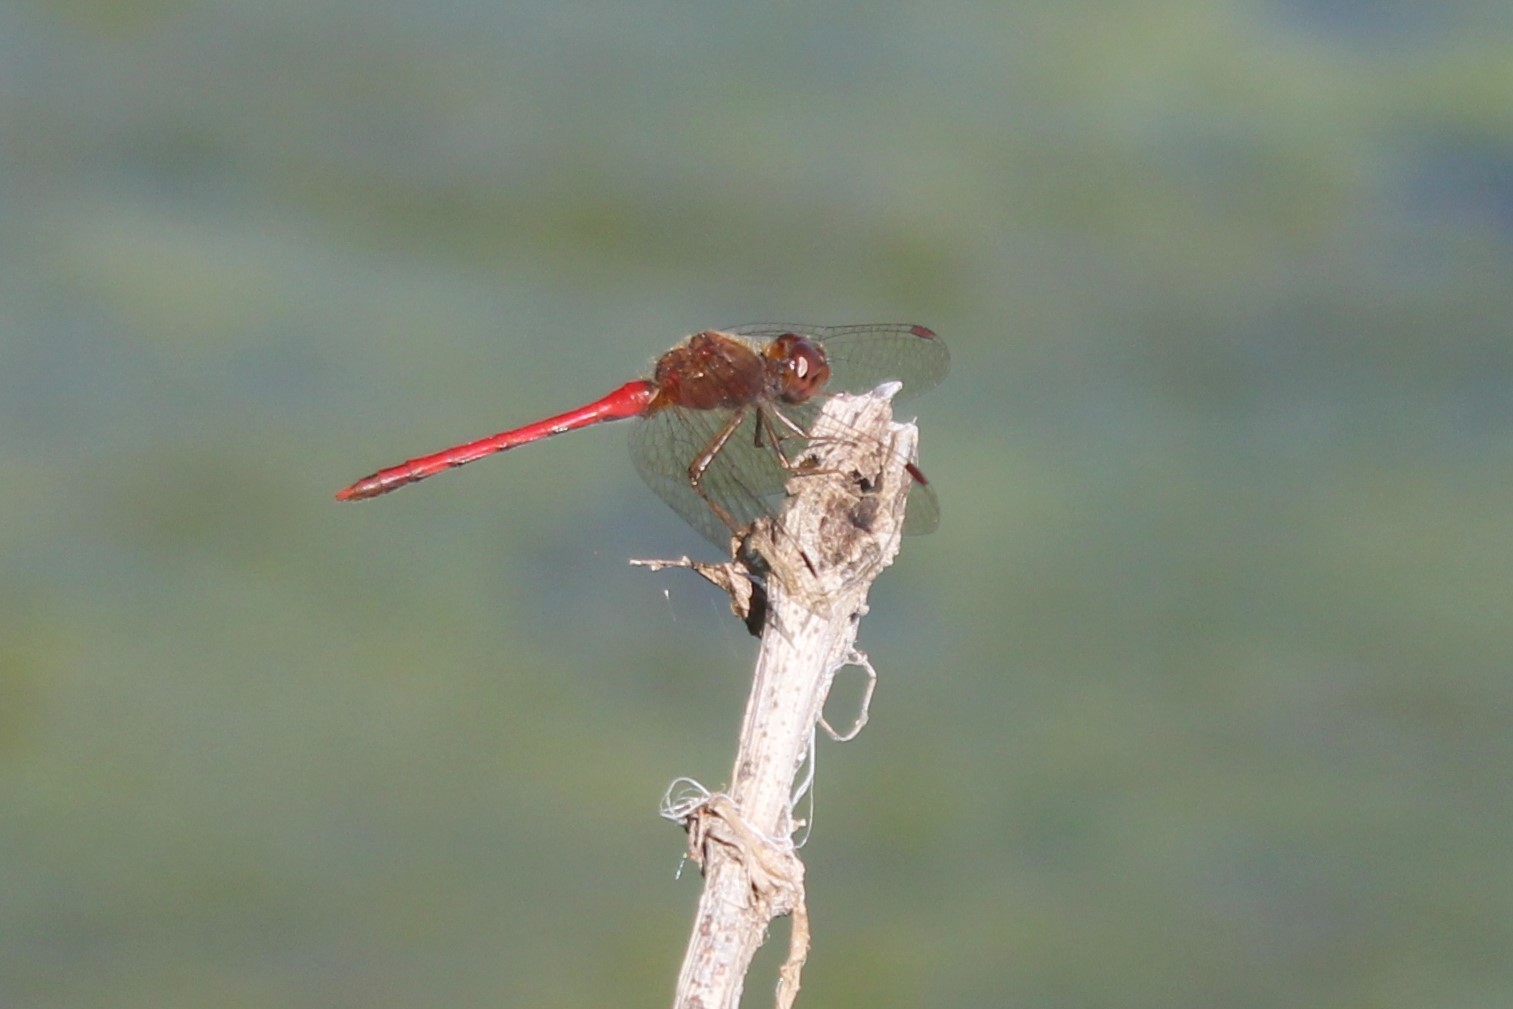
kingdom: Animalia
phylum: Arthropoda
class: Insecta
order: Odonata
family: Libellulidae
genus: Sympetrum
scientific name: Sympetrum vicinum
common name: Autumn meadowhawk
